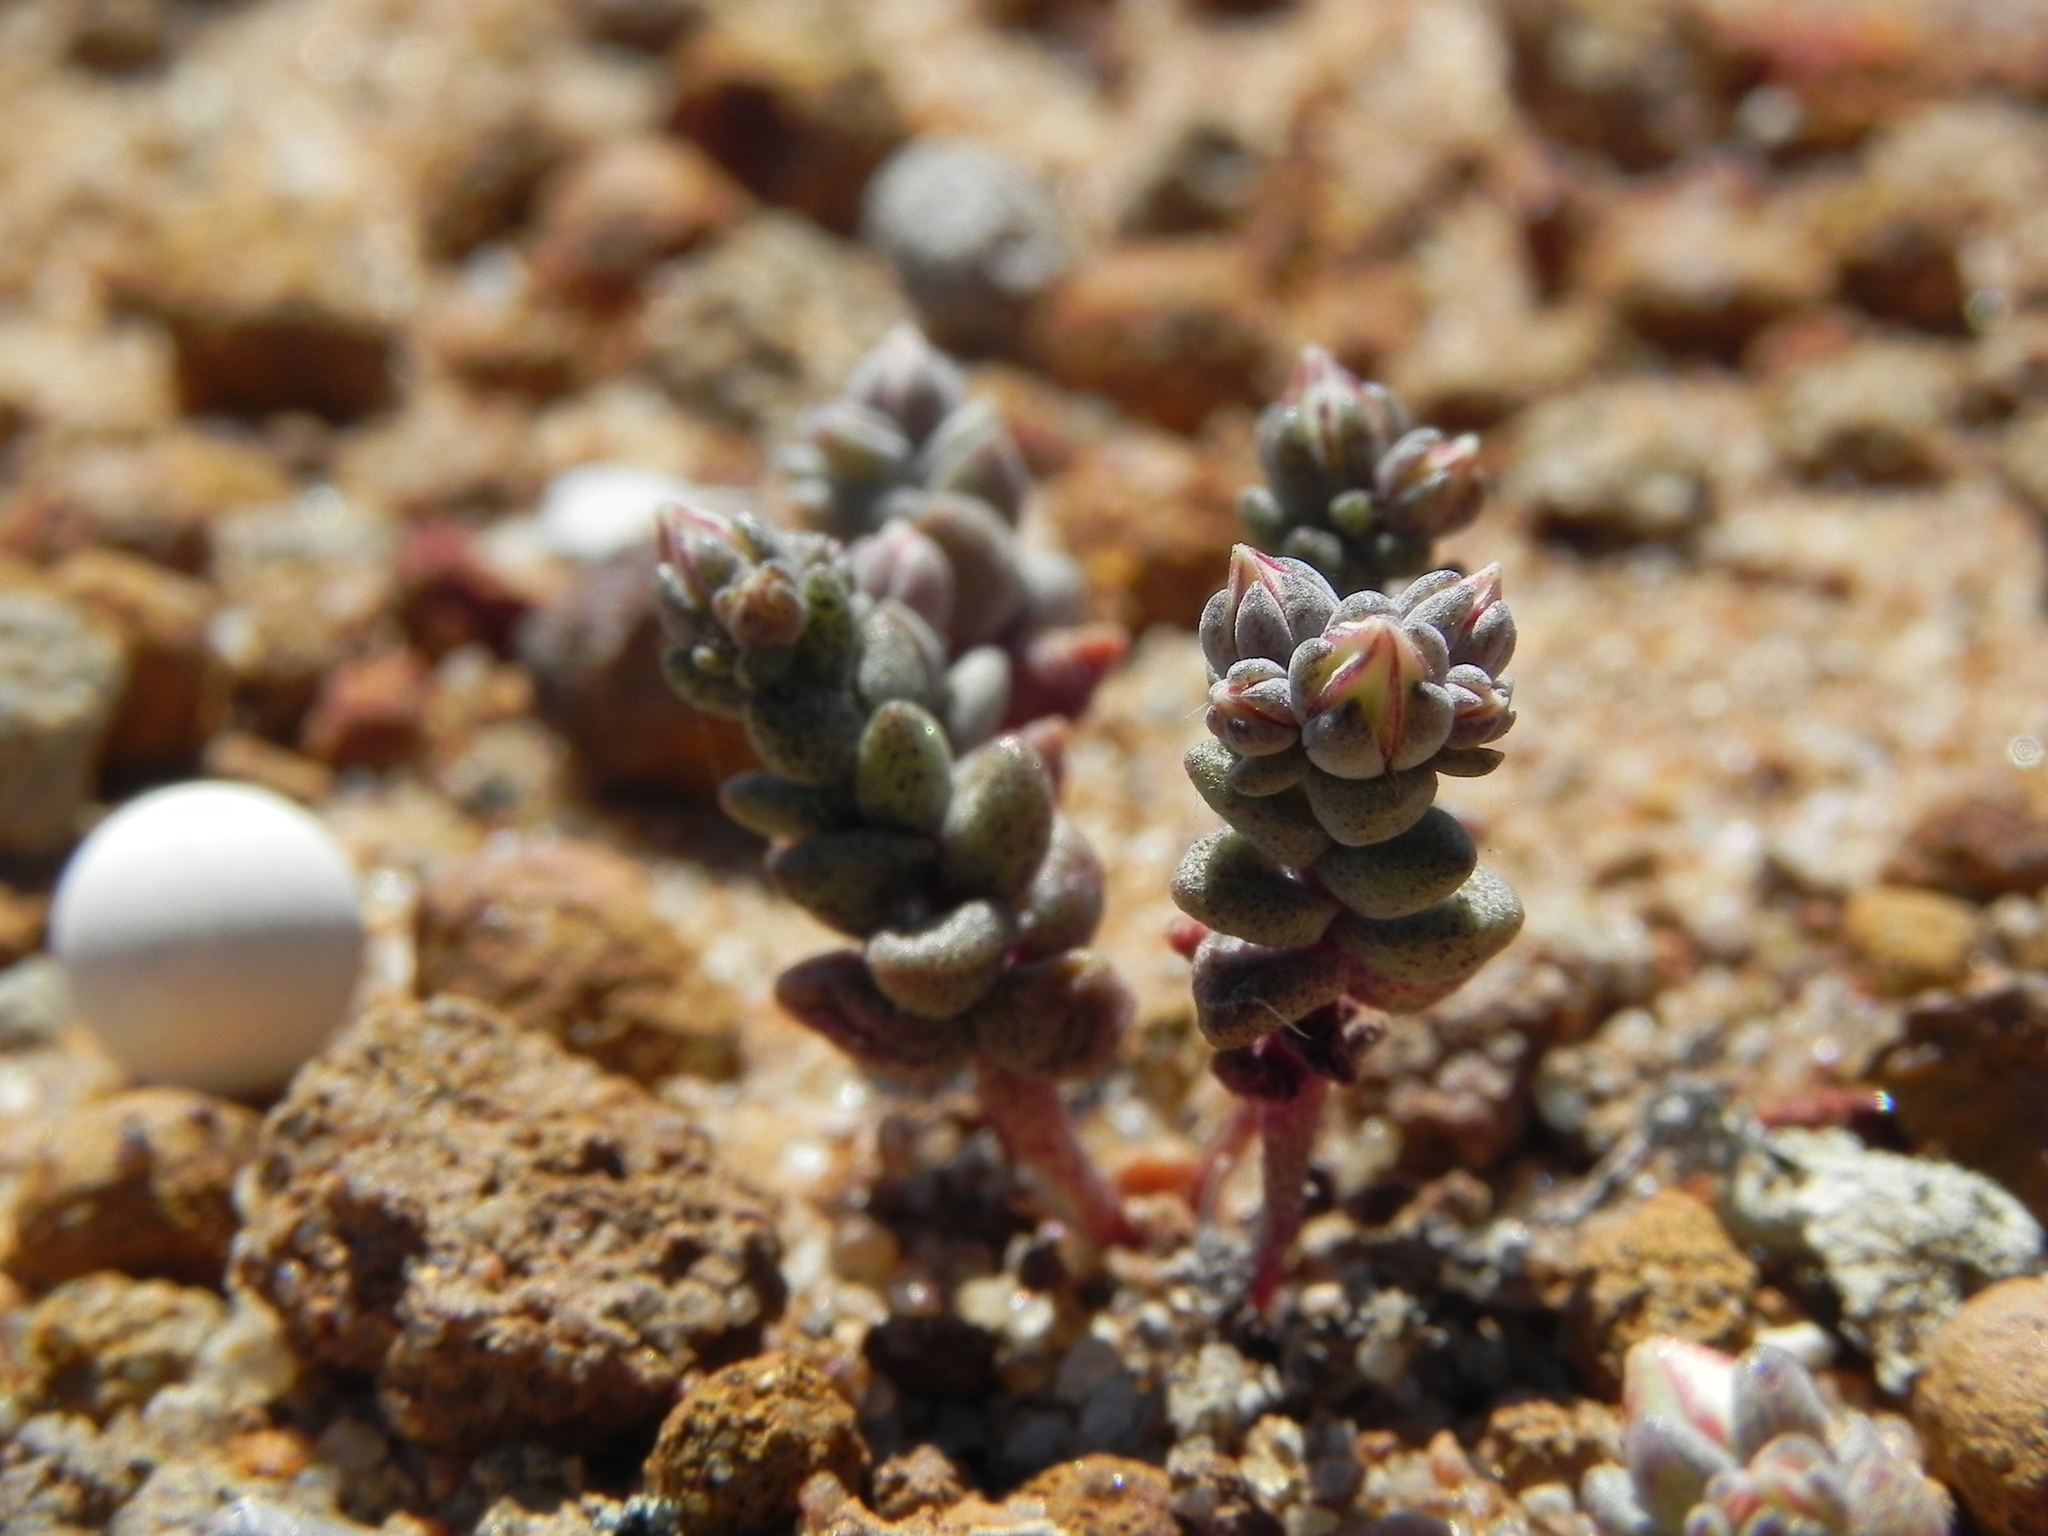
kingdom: Plantae
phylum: Tracheophyta
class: Magnoliopsida
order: Saxifragales
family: Crassulaceae
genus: Dudleya
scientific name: Dudleya blochmaniae
